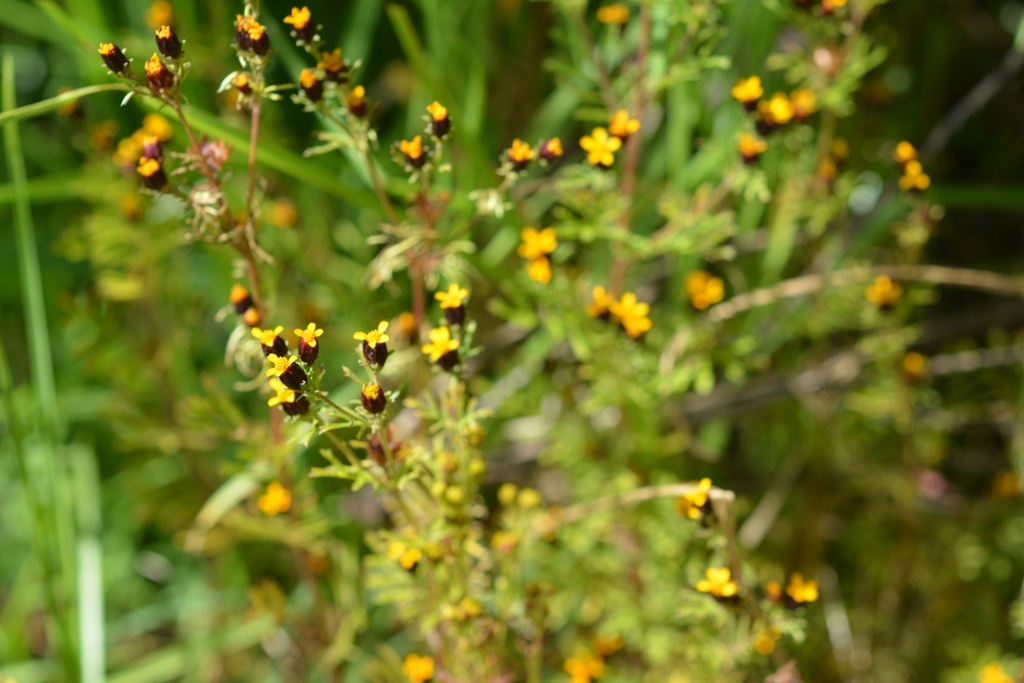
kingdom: Plantae
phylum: Tracheophyta
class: Magnoliopsida
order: Asterales
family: Asteraceae
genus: Dyssodia
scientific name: Dyssodia papposa
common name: Dogweed
